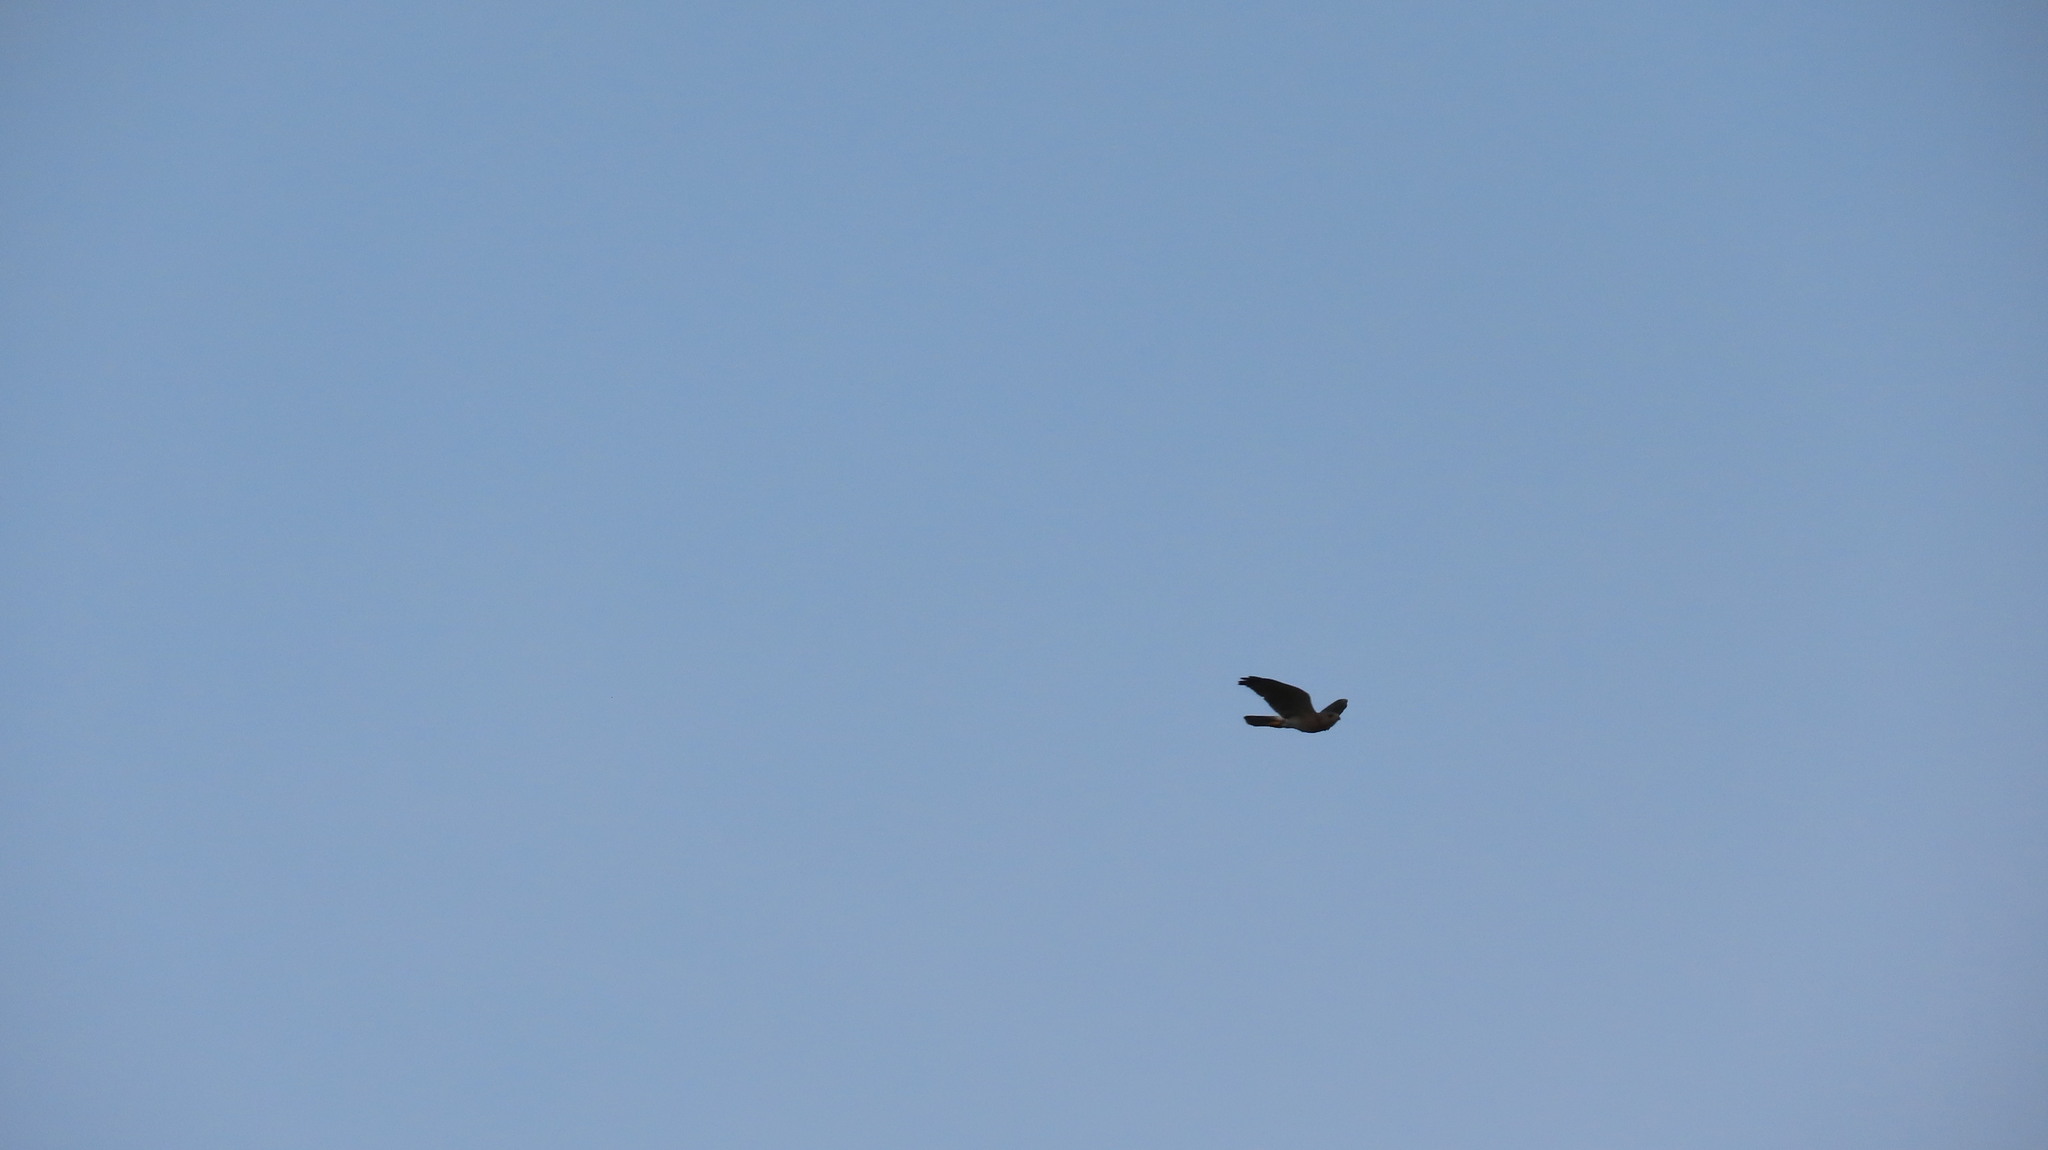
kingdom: Animalia
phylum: Chordata
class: Aves
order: Accipitriformes
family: Accipitridae
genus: Accipiter
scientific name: Accipiter badius
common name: Shikra
